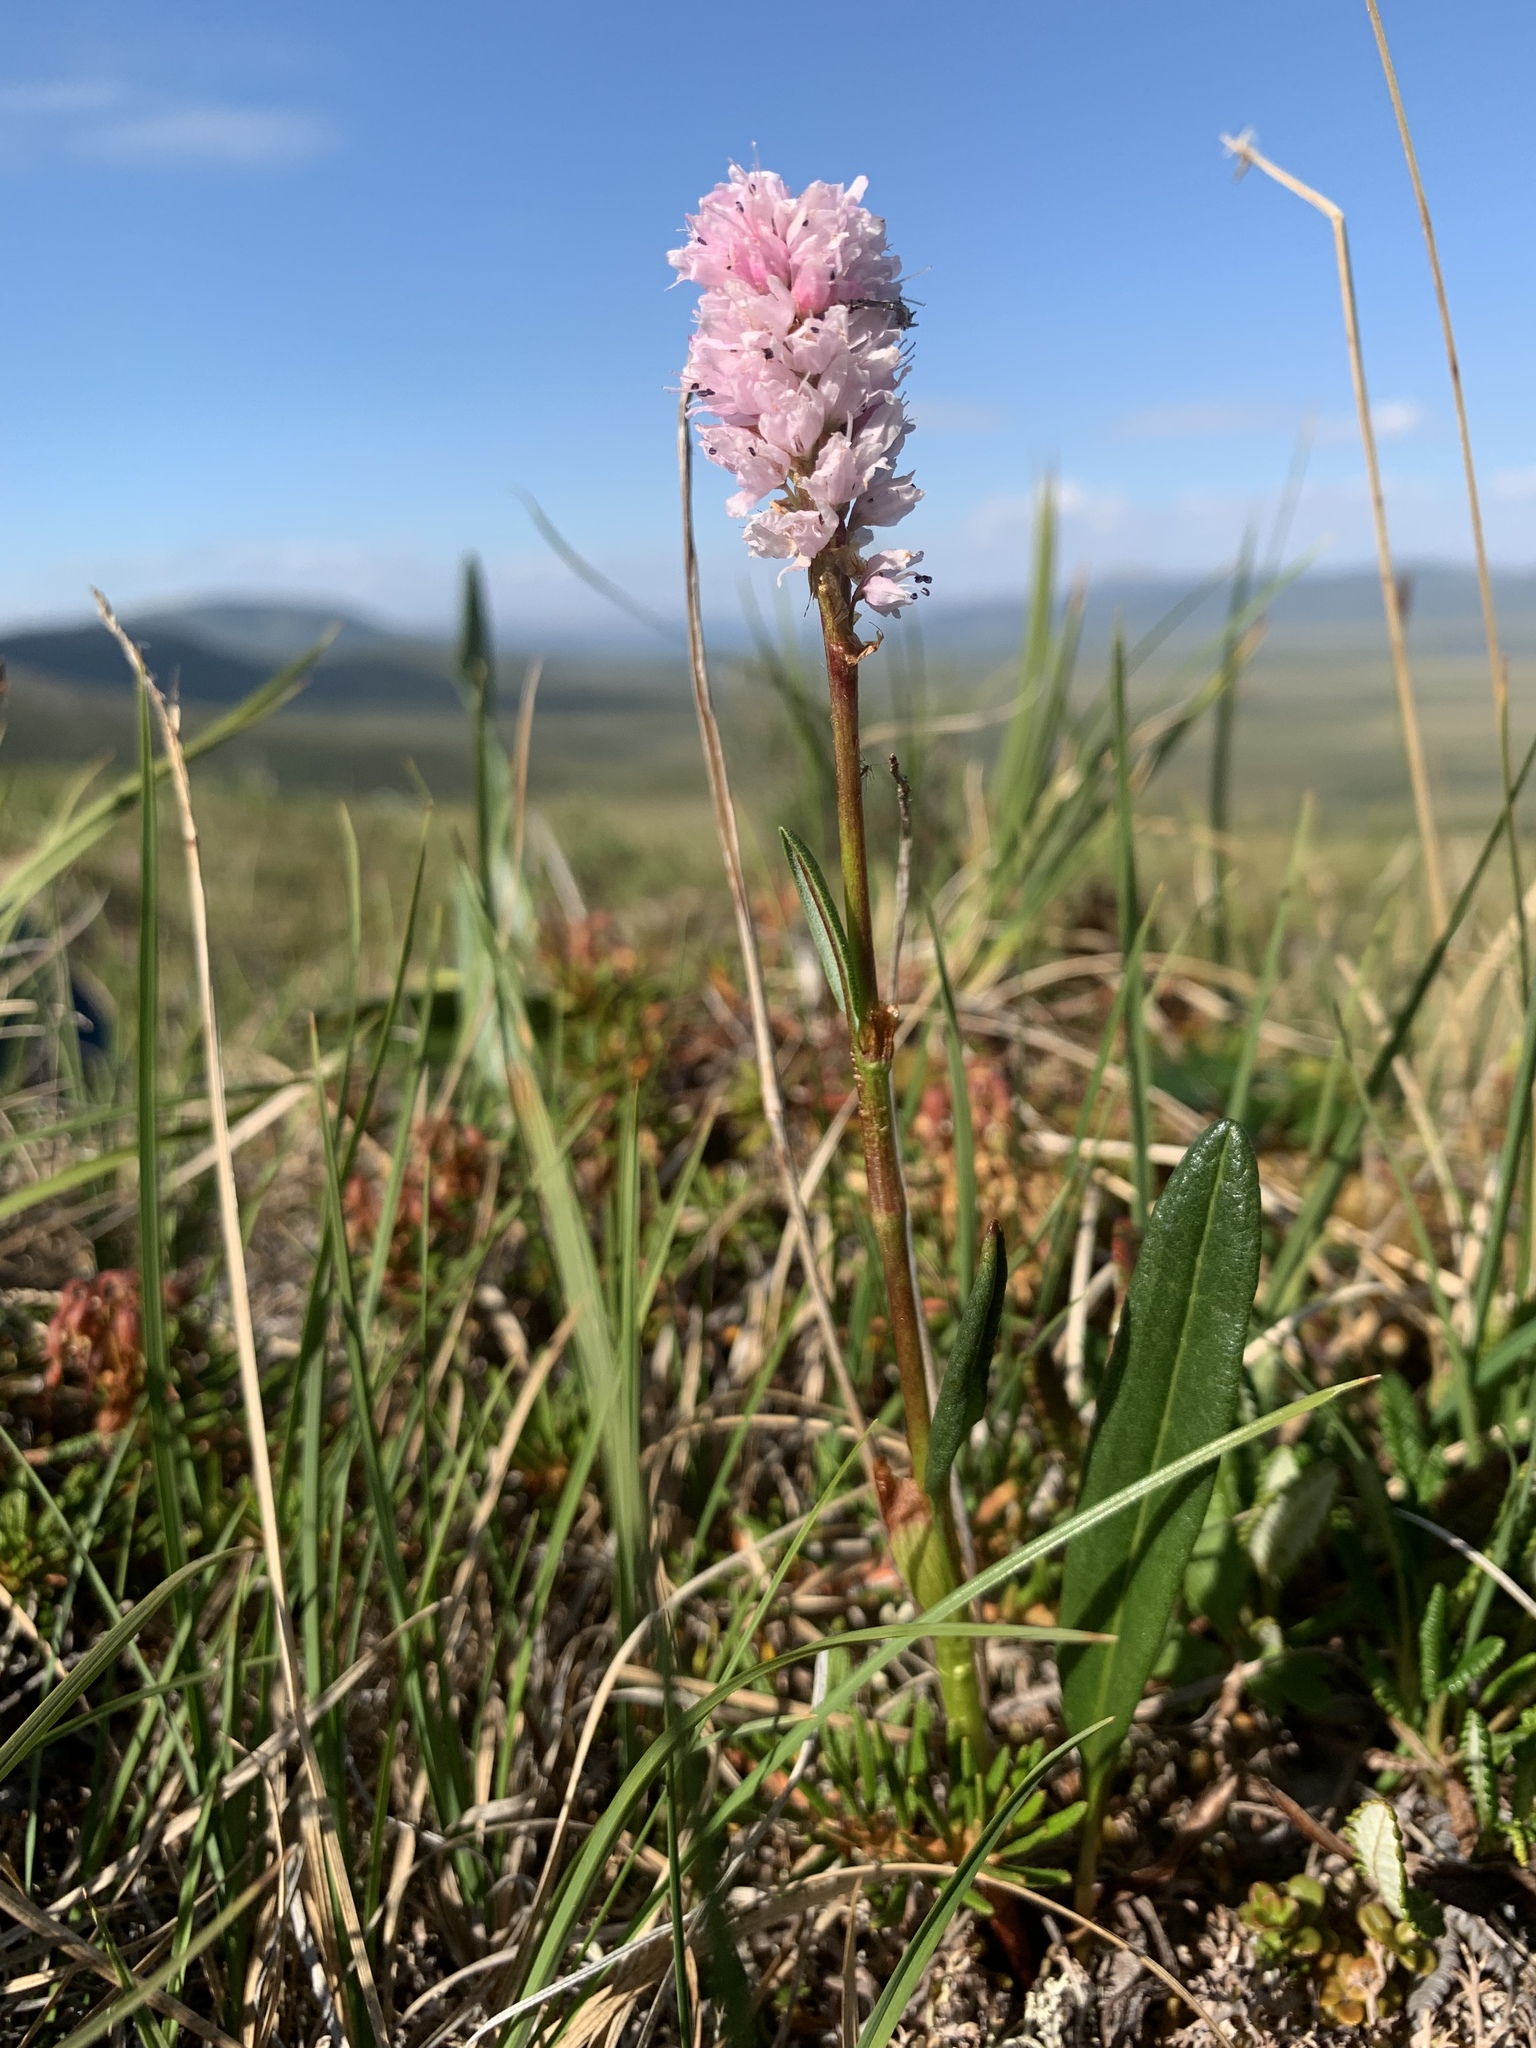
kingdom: Plantae
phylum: Tracheophyta
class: Magnoliopsida
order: Caryophyllales
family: Polygonaceae
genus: Bistorta
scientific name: Bistorta plumosa
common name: Meadow bistort
